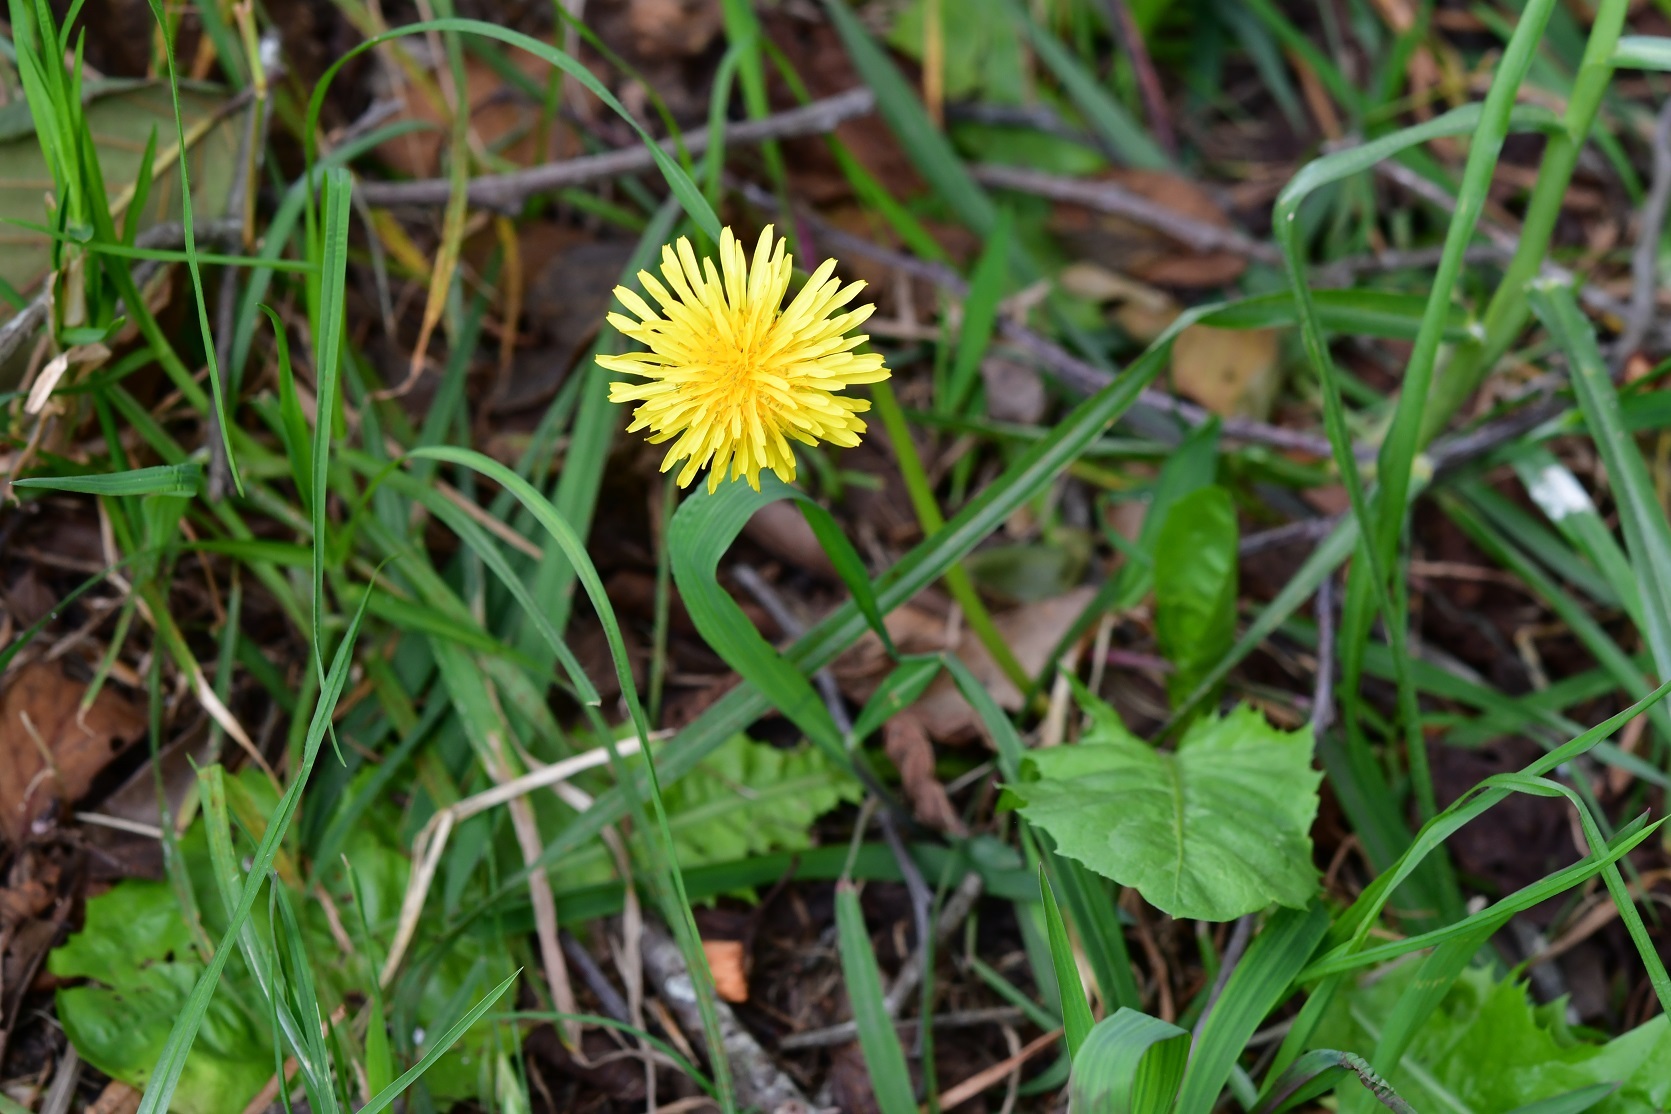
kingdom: Plantae
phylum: Tracheophyta
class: Magnoliopsida
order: Asterales
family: Asteraceae
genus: Taraxacum
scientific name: Taraxacum officinale
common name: Common dandelion
